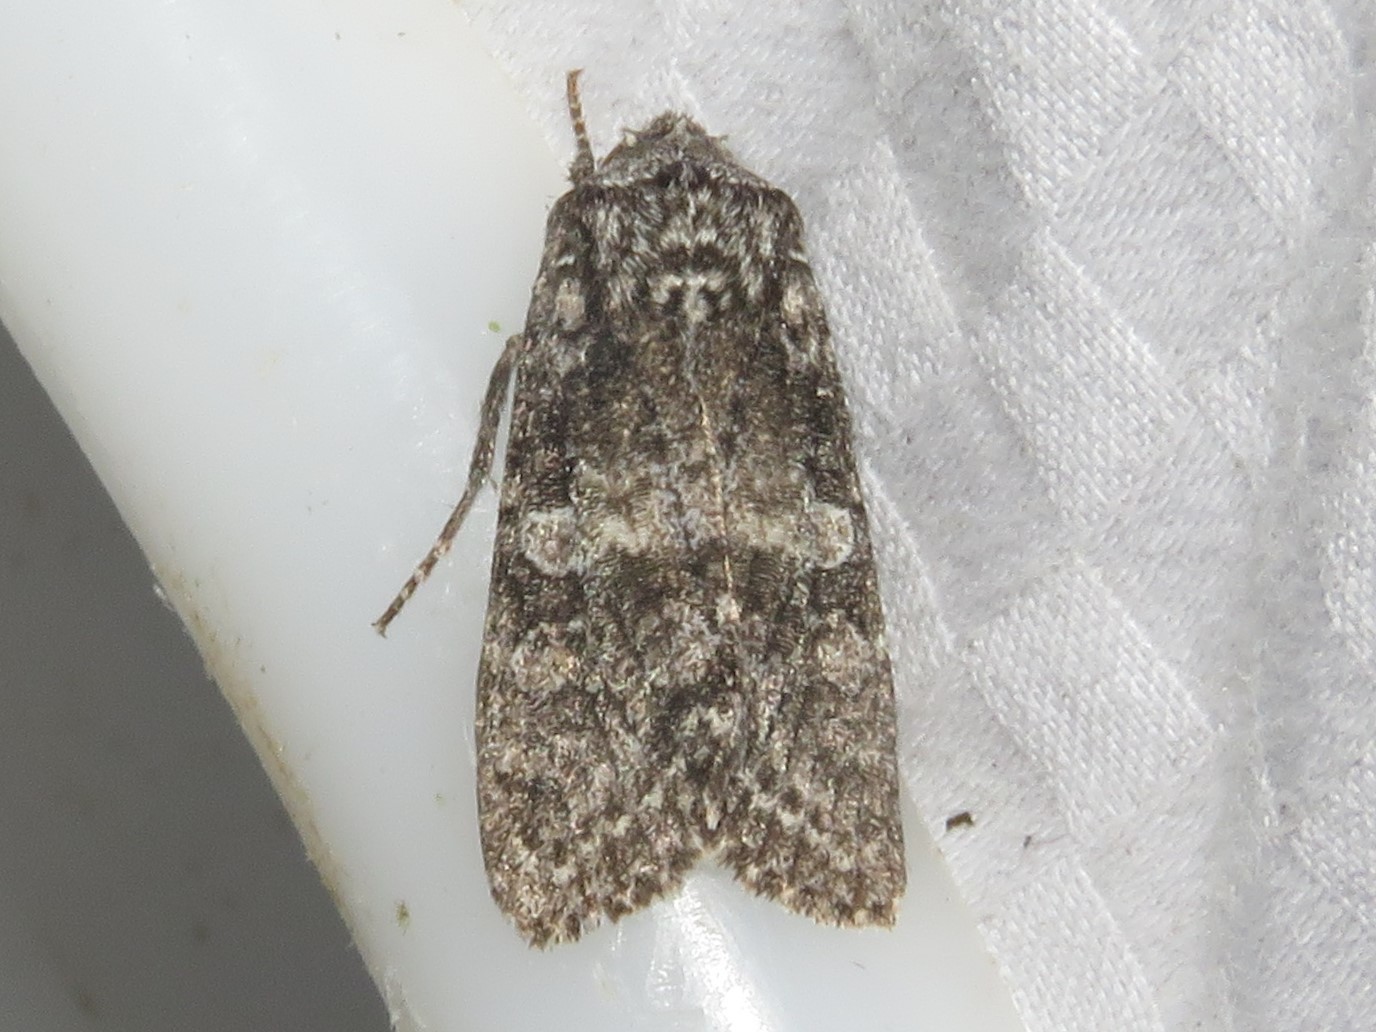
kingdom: Animalia
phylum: Arthropoda
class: Insecta
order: Lepidoptera
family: Noctuidae
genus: Egira
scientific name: Egira dolosa
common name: Lined black aspen cat.
